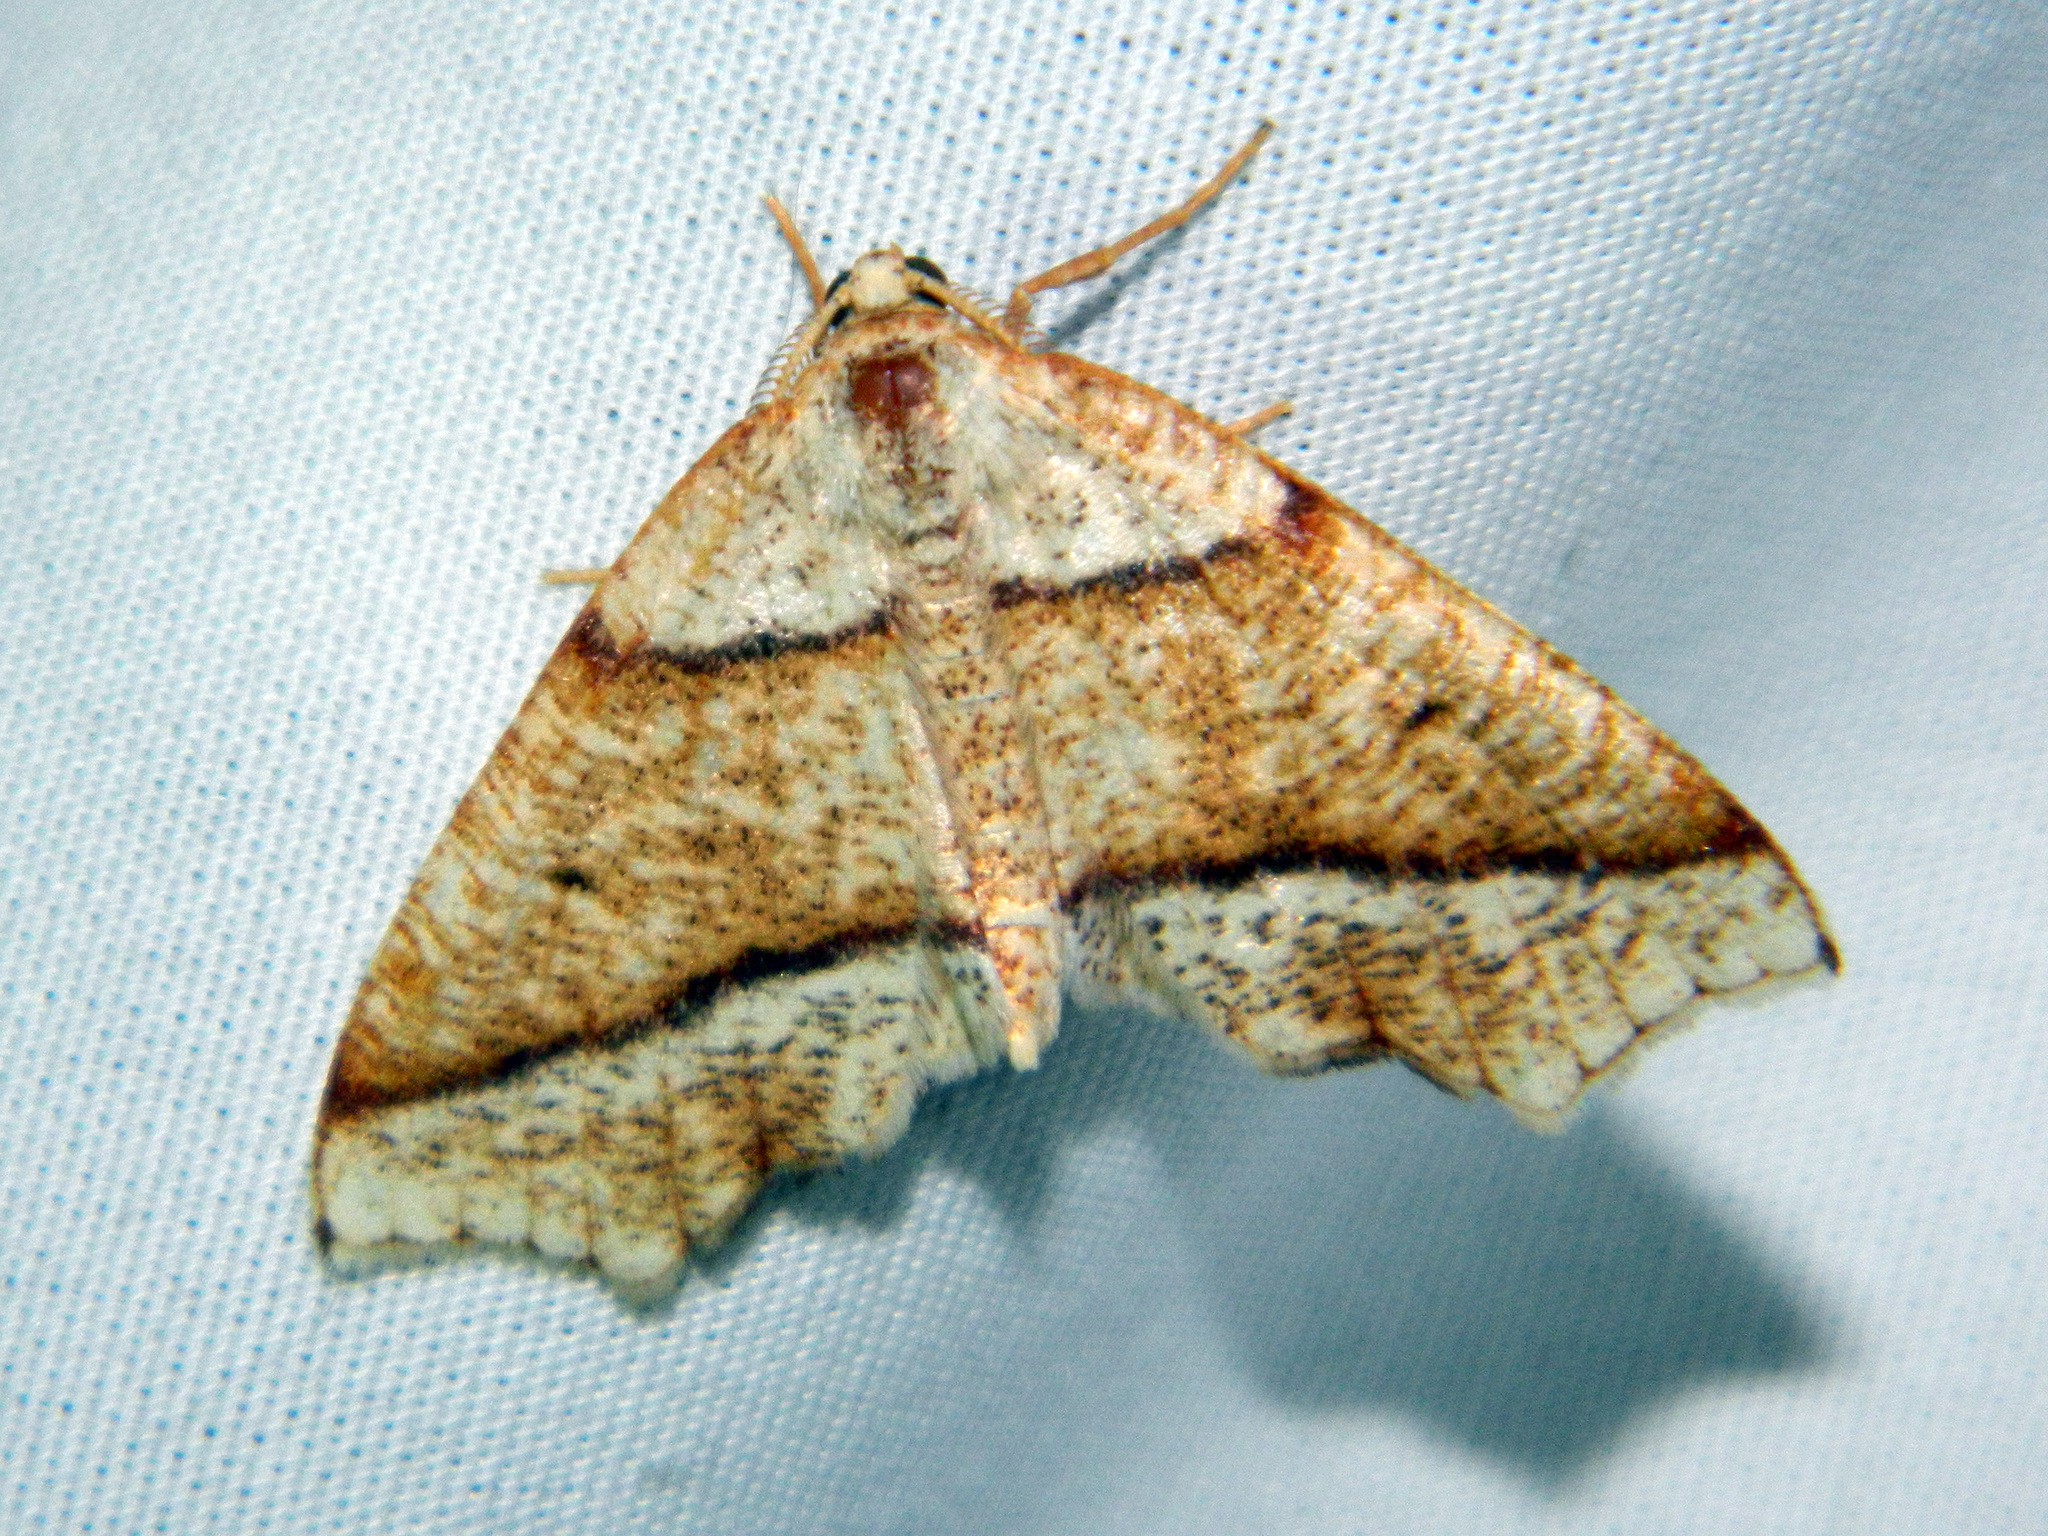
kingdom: Animalia
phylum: Arthropoda
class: Insecta
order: Lepidoptera
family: Geometridae
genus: Plagodis
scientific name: Plagodis alcoolaria
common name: Hollow-spotted plagodis
